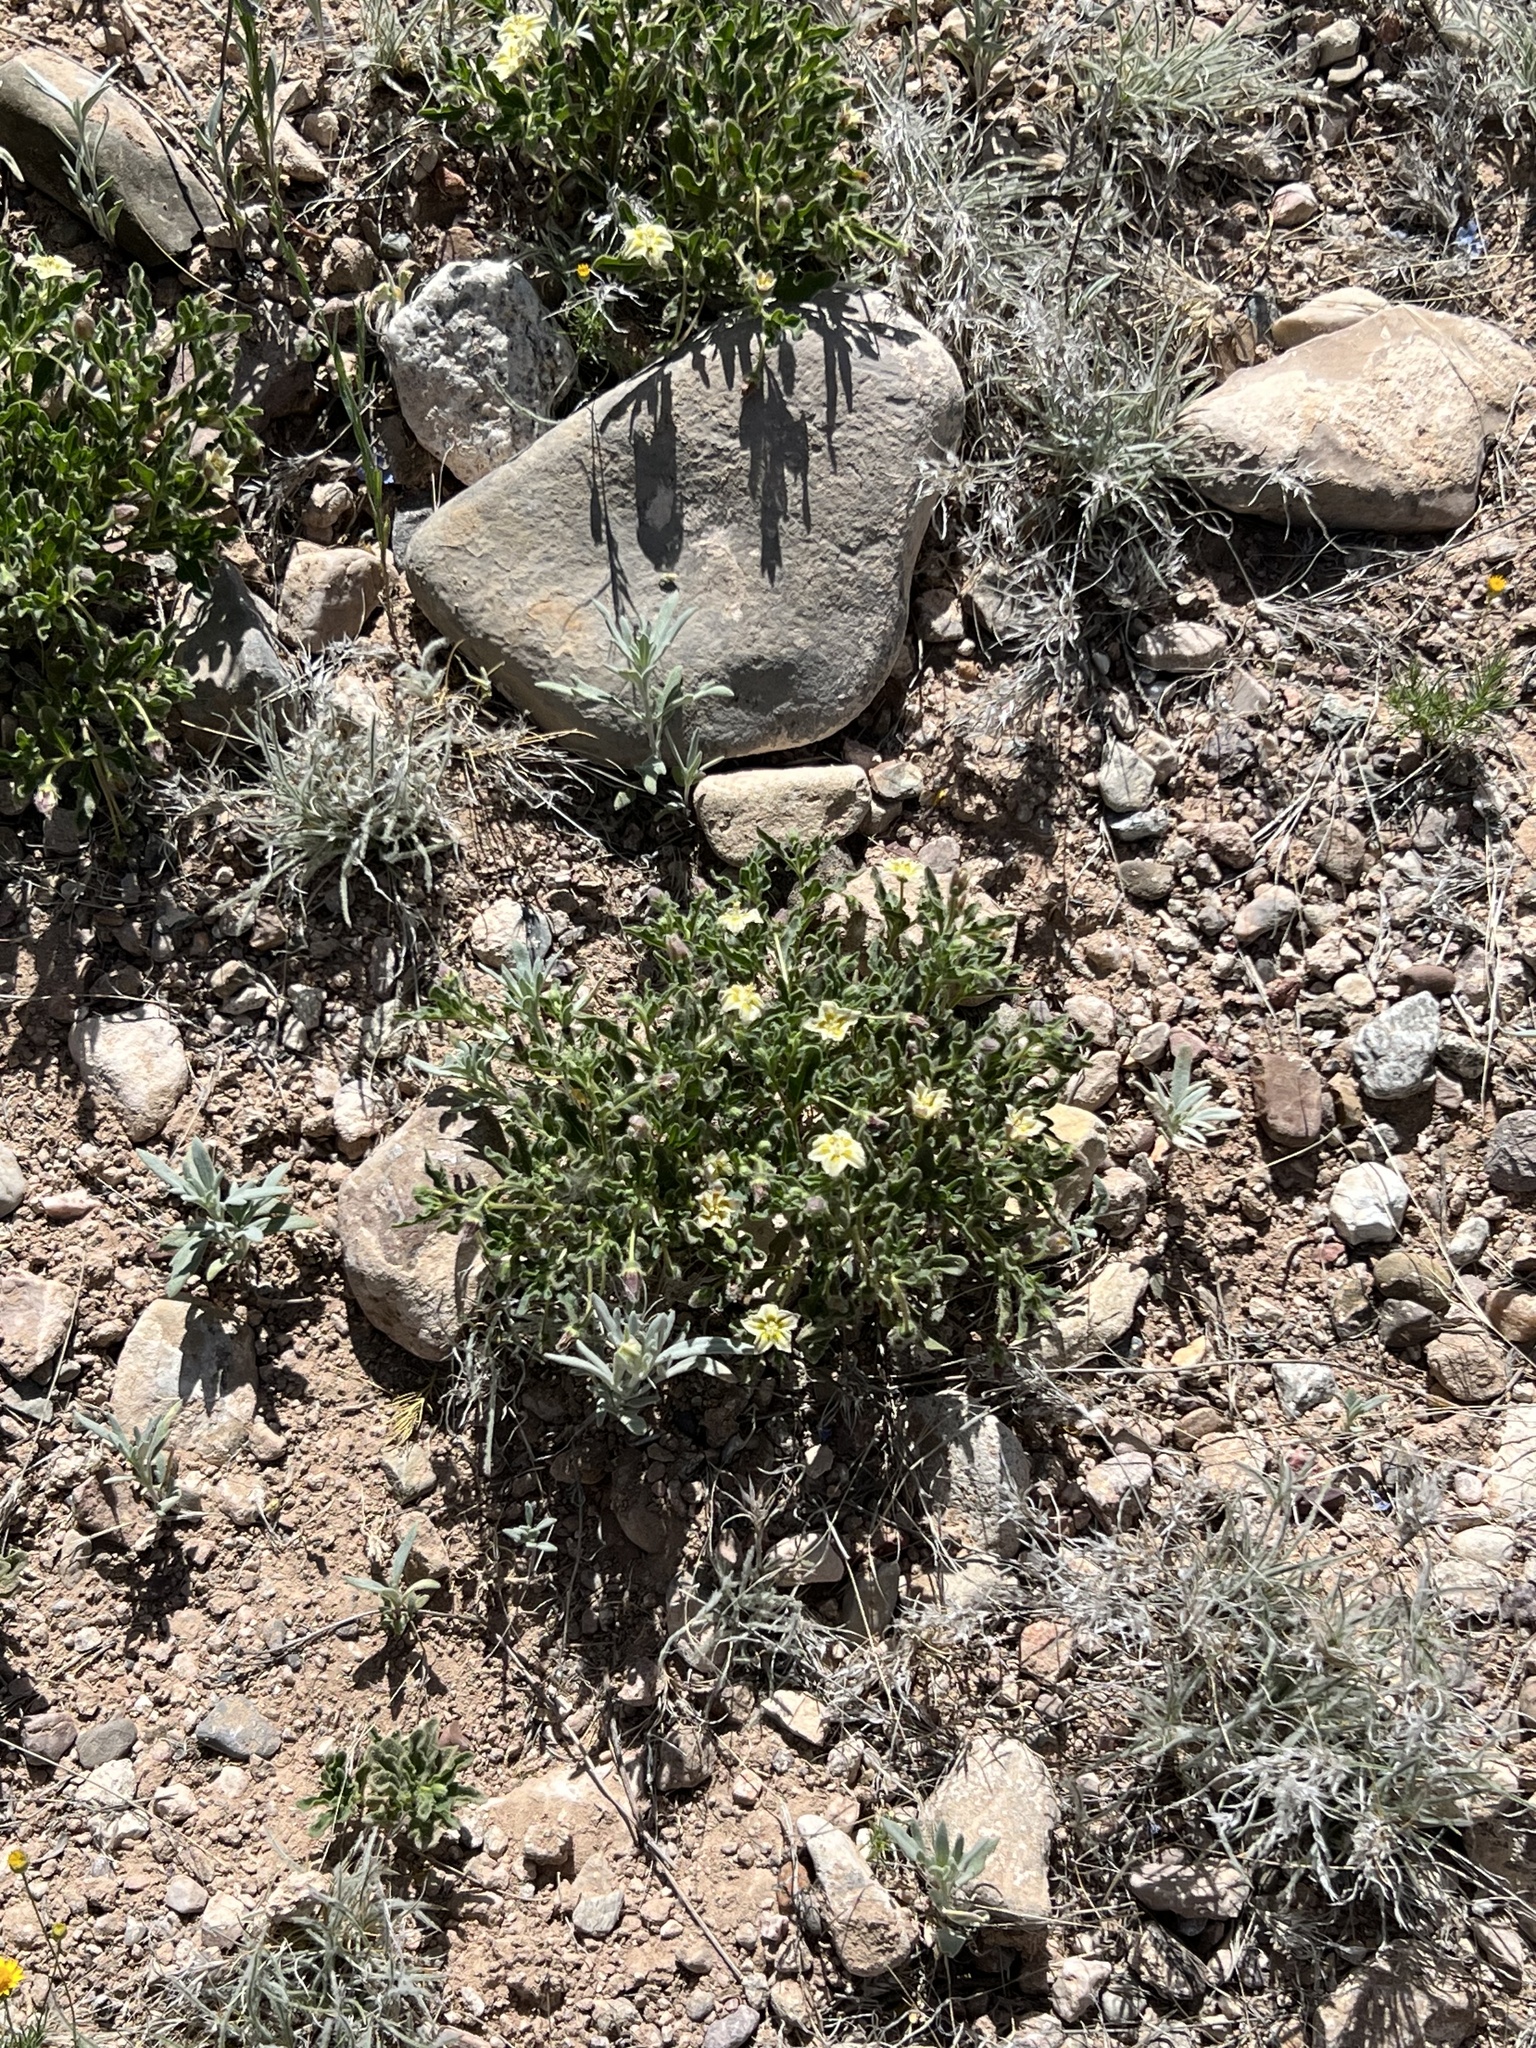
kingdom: Plantae
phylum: Tracheophyta
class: Magnoliopsida
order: Solanales
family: Solanaceae
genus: Chamaesaracha
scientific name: Chamaesaracha sordida
